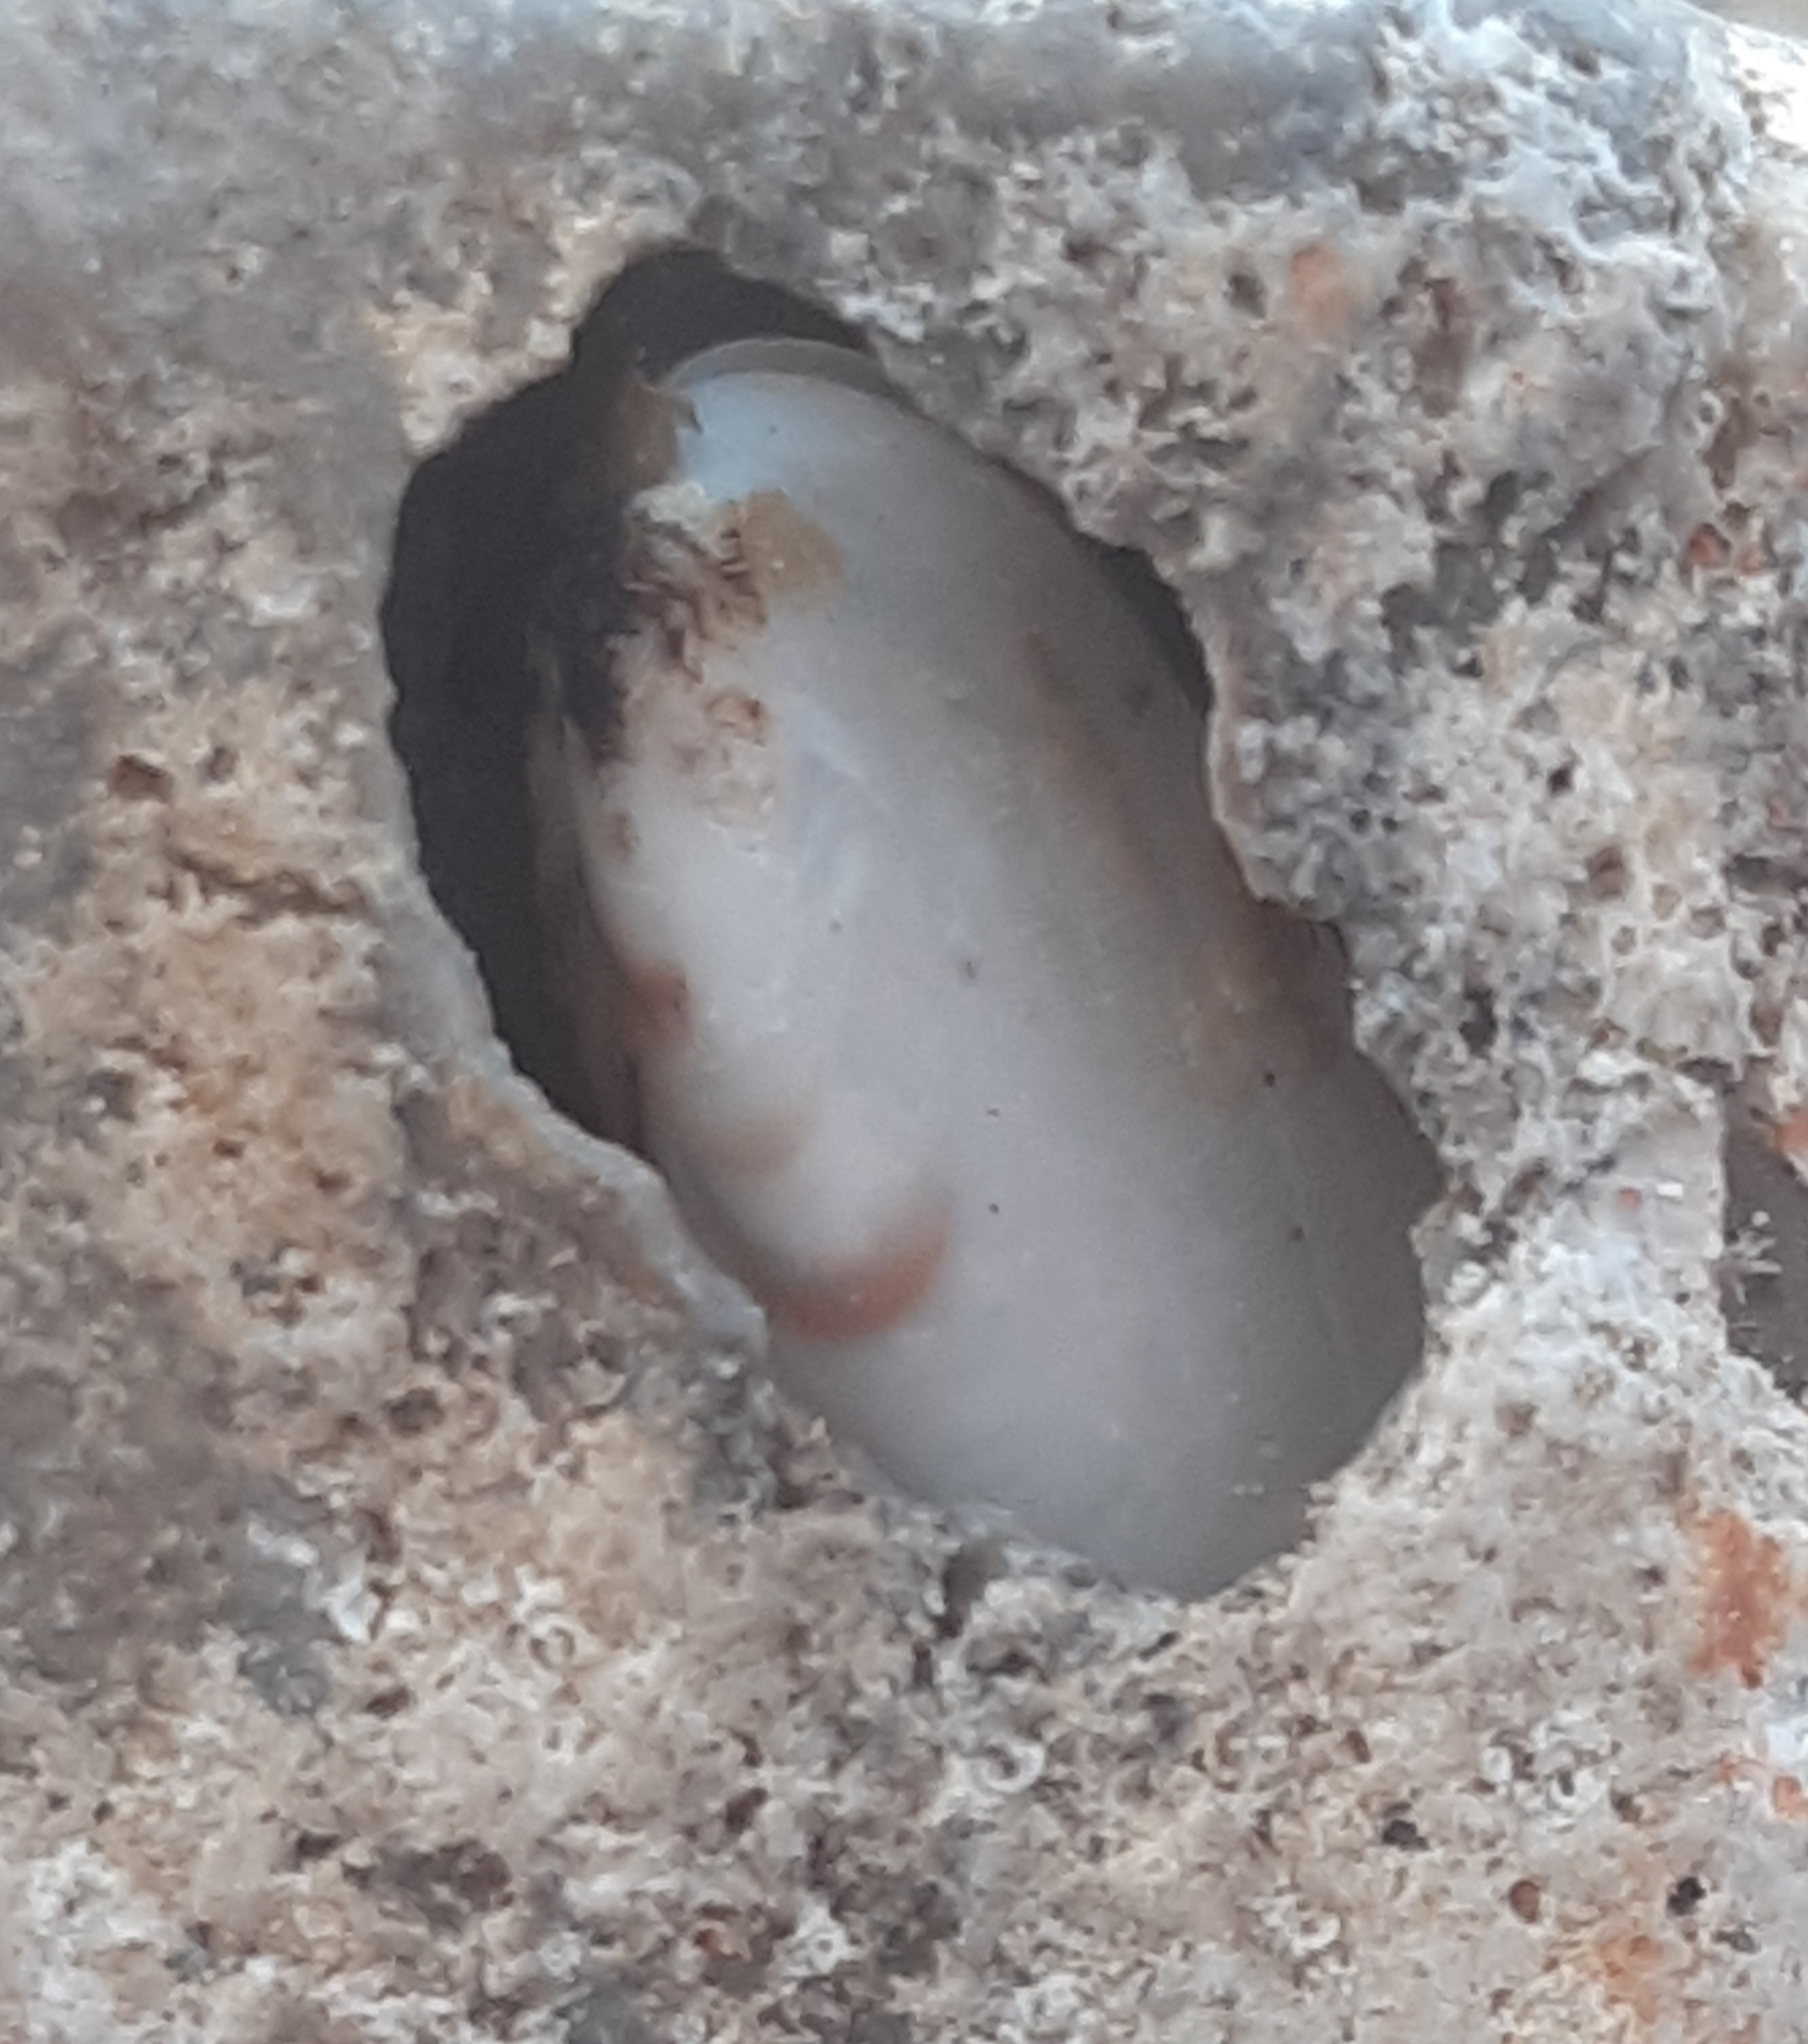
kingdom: Animalia
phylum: Mollusca
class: Bivalvia
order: Mytilida
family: Mytilidae
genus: Lithophaga
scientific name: Lithophaga lithophaga
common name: European date mussel
